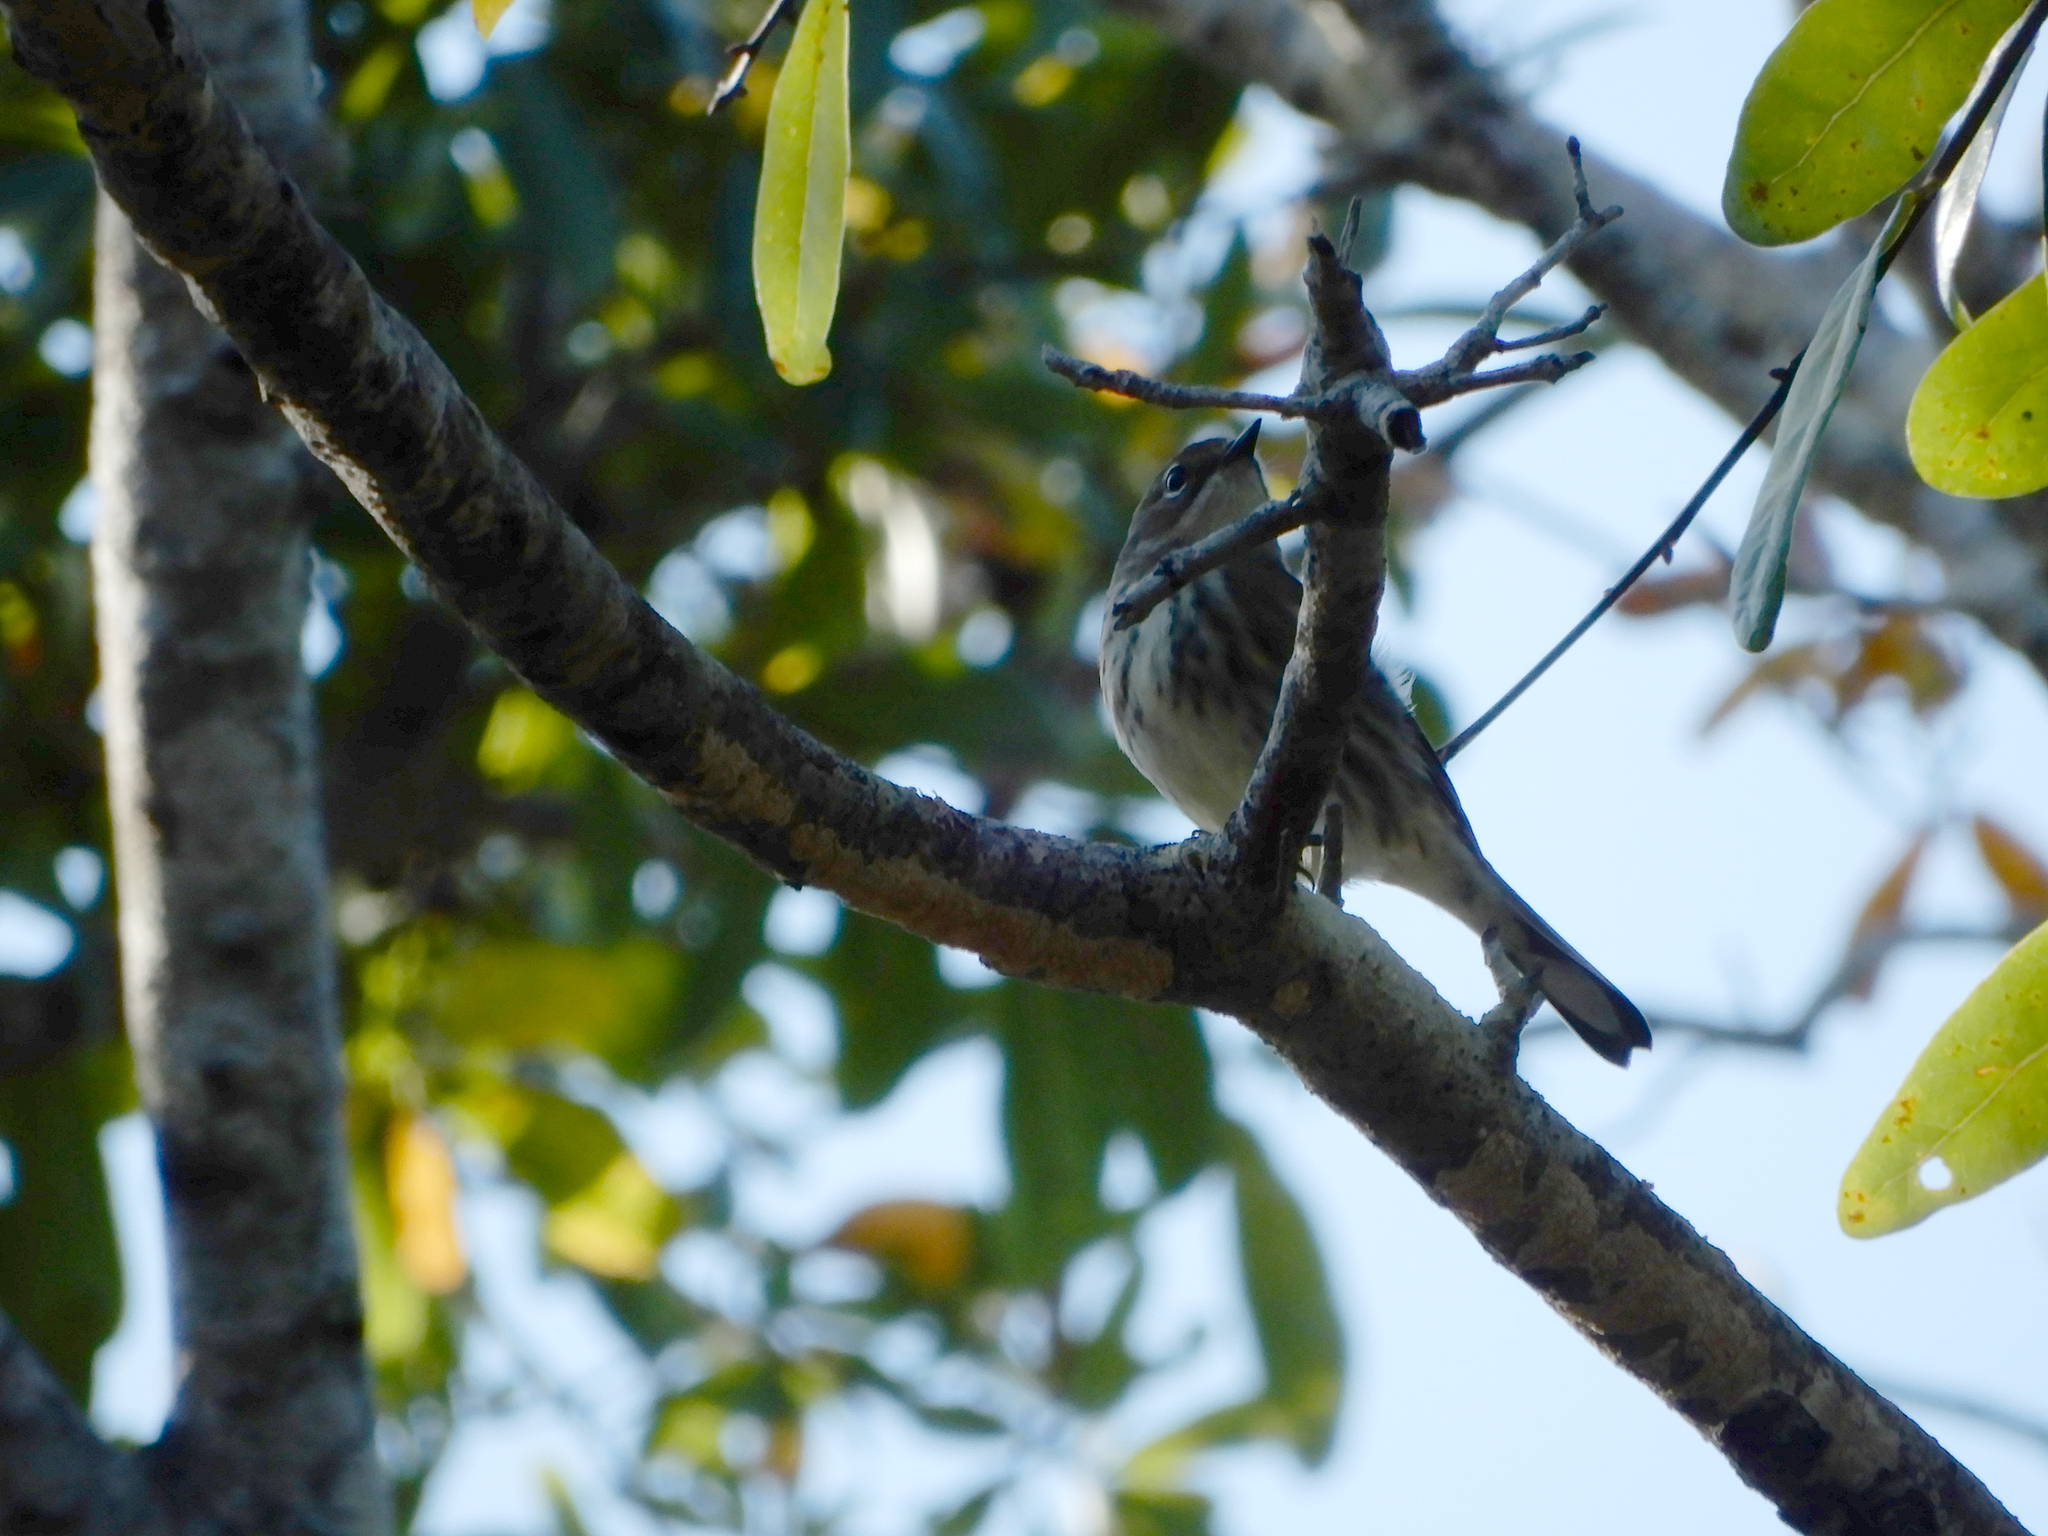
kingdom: Animalia
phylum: Chordata
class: Aves
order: Passeriformes
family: Parulidae
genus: Setophaga
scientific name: Setophaga coronata
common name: Myrtle warbler
